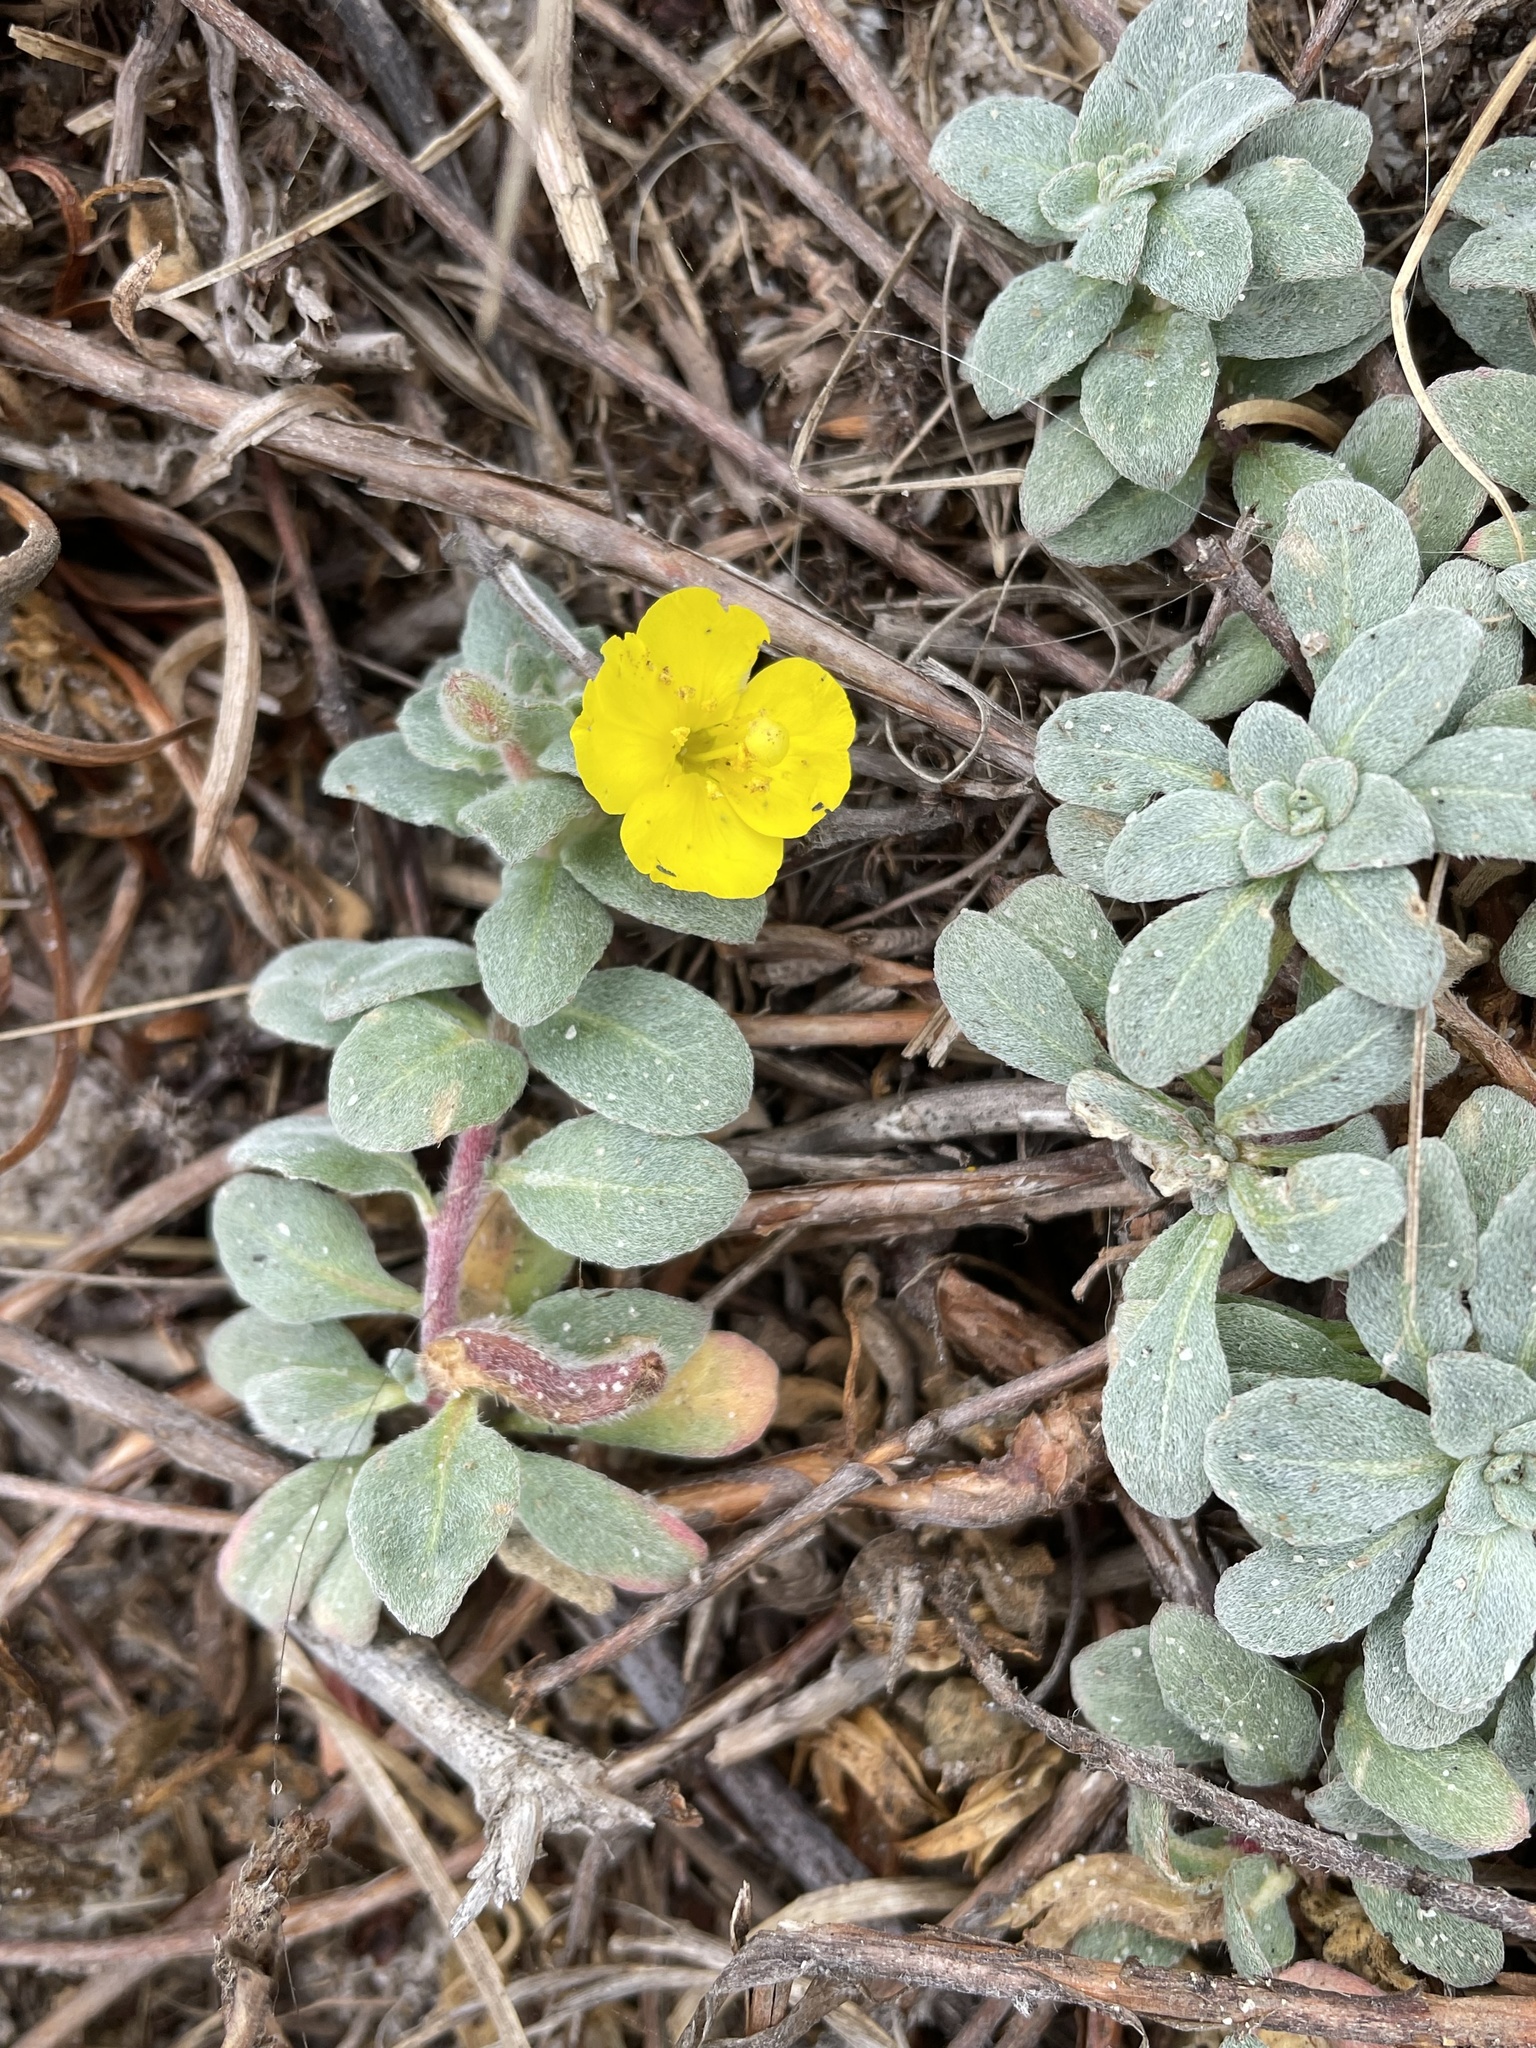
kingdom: Plantae
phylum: Tracheophyta
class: Magnoliopsida
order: Myrtales
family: Onagraceae
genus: Camissoniopsis
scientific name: Camissoniopsis cheiranthifolia
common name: Beach suncup
